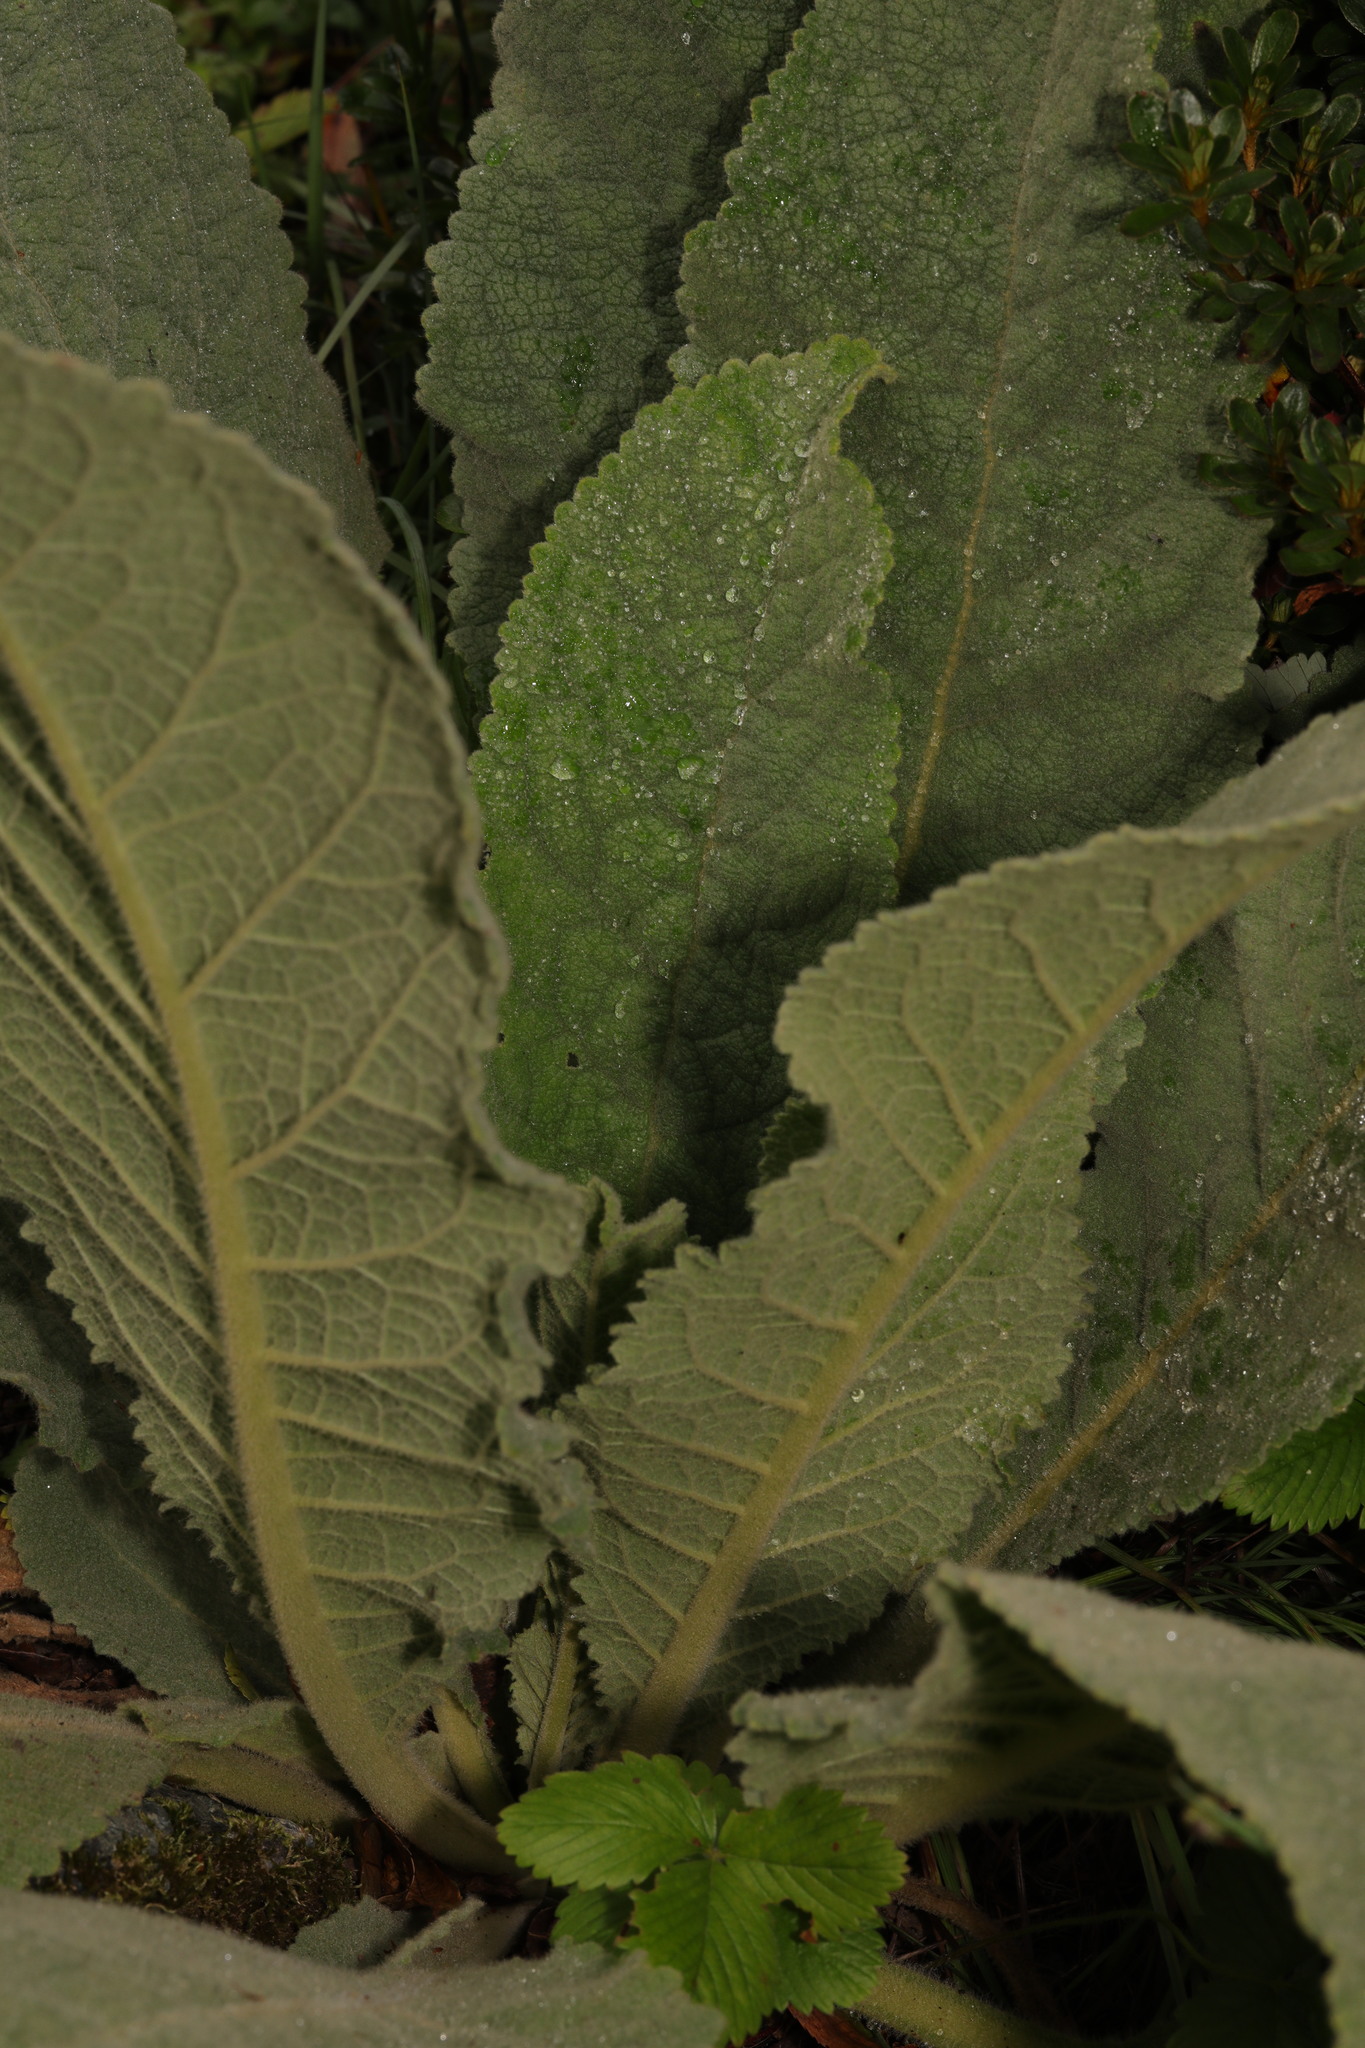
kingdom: Plantae
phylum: Tracheophyta
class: Magnoliopsida
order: Lamiales
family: Scrophulariaceae
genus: Verbascum
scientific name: Verbascum thapsus
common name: Common mullein
